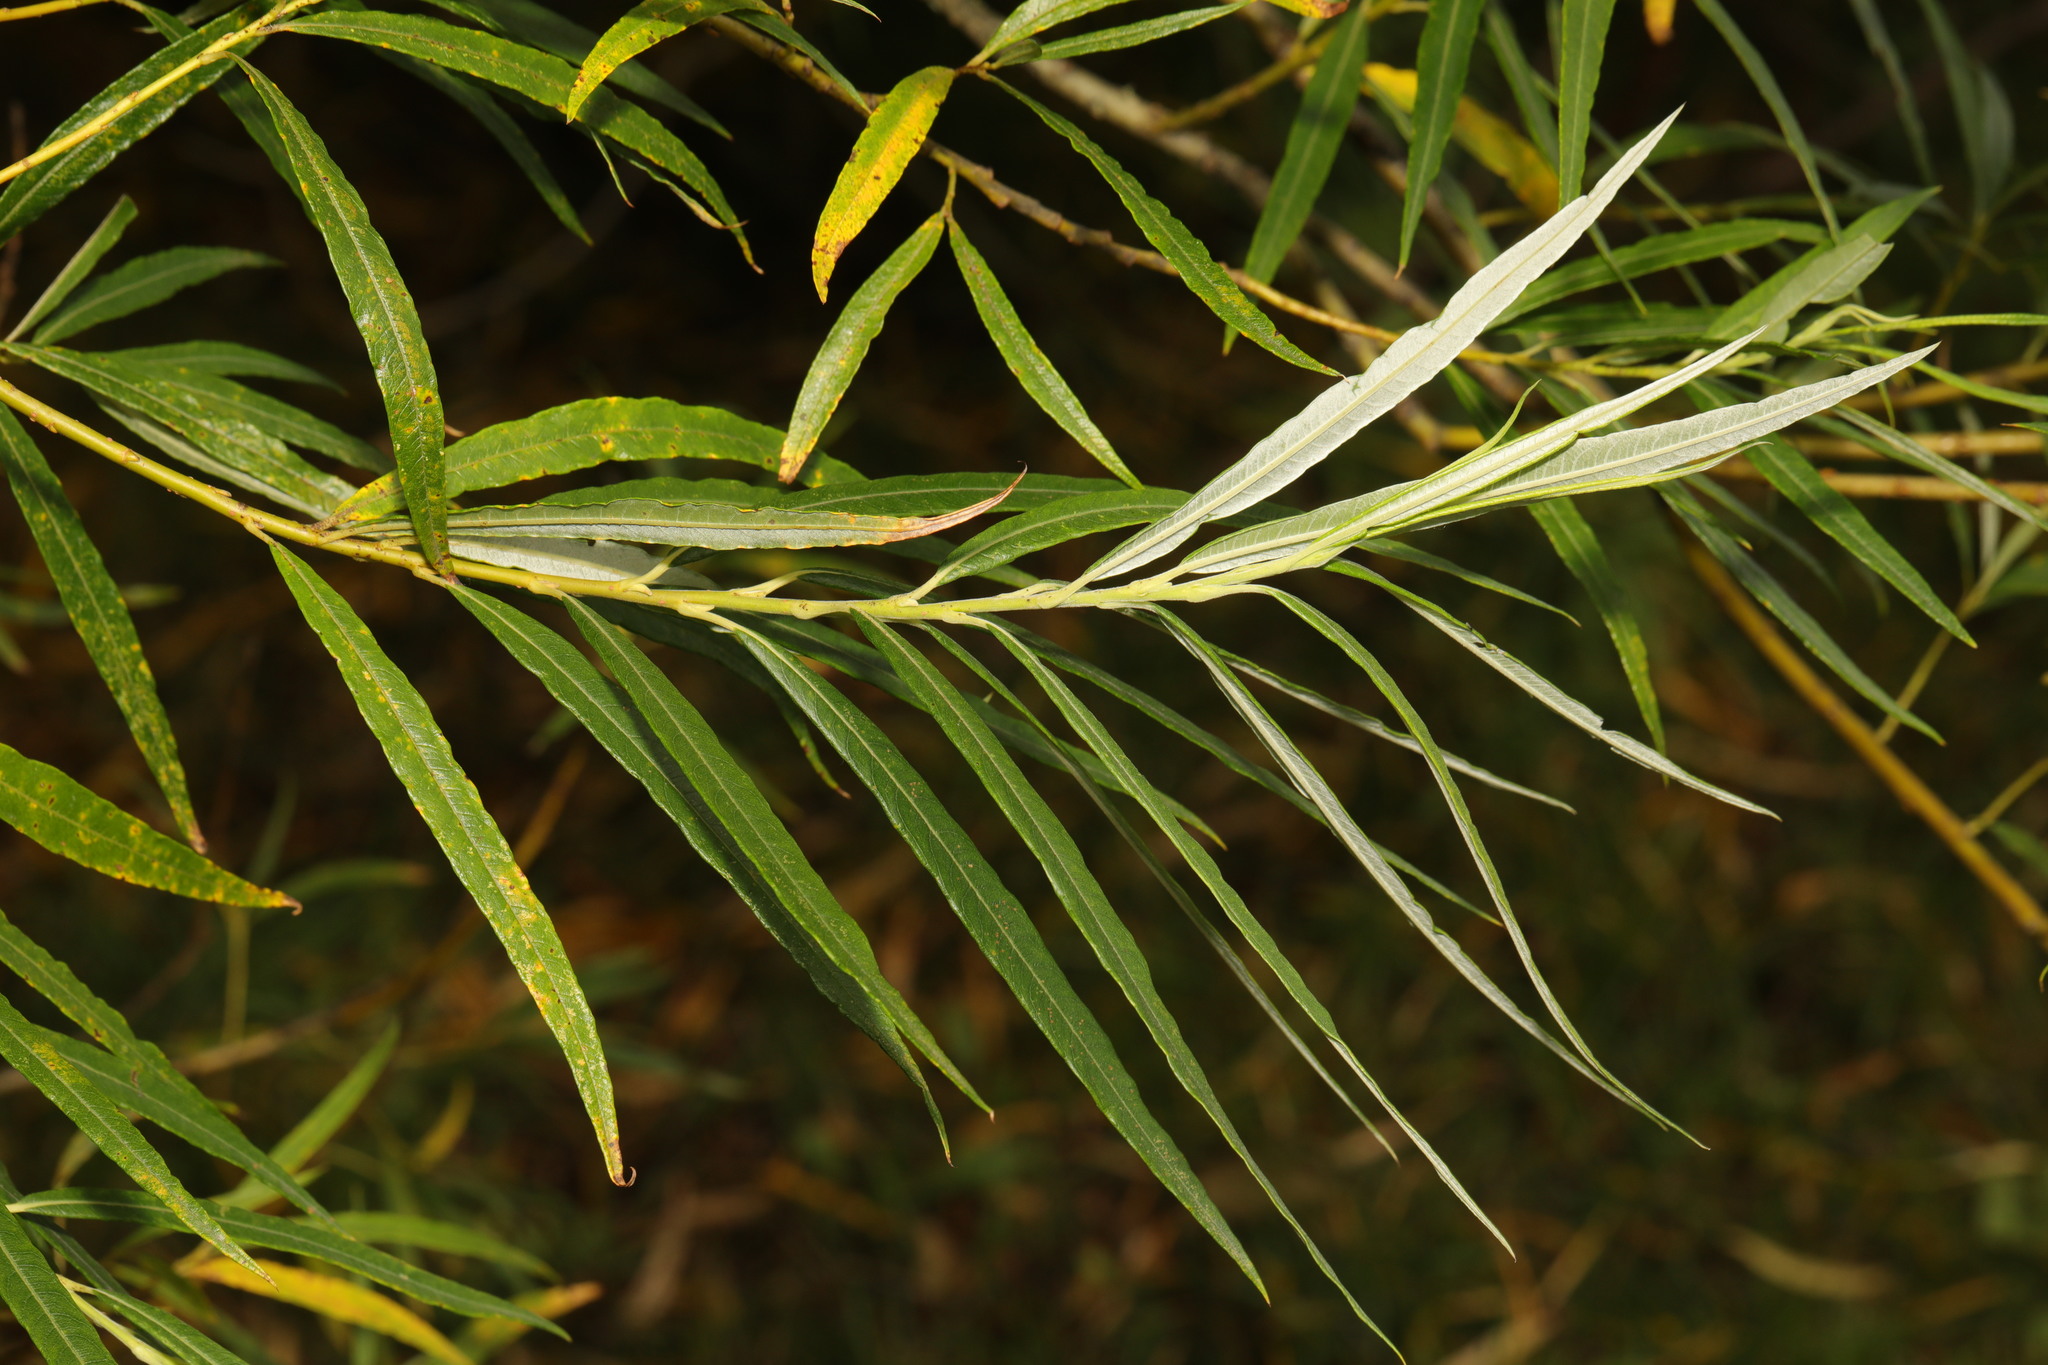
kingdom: Plantae
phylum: Tracheophyta
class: Magnoliopsida
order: Malpighiales
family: Salicaceae
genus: Salix
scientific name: Salix viminalis
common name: Osier
